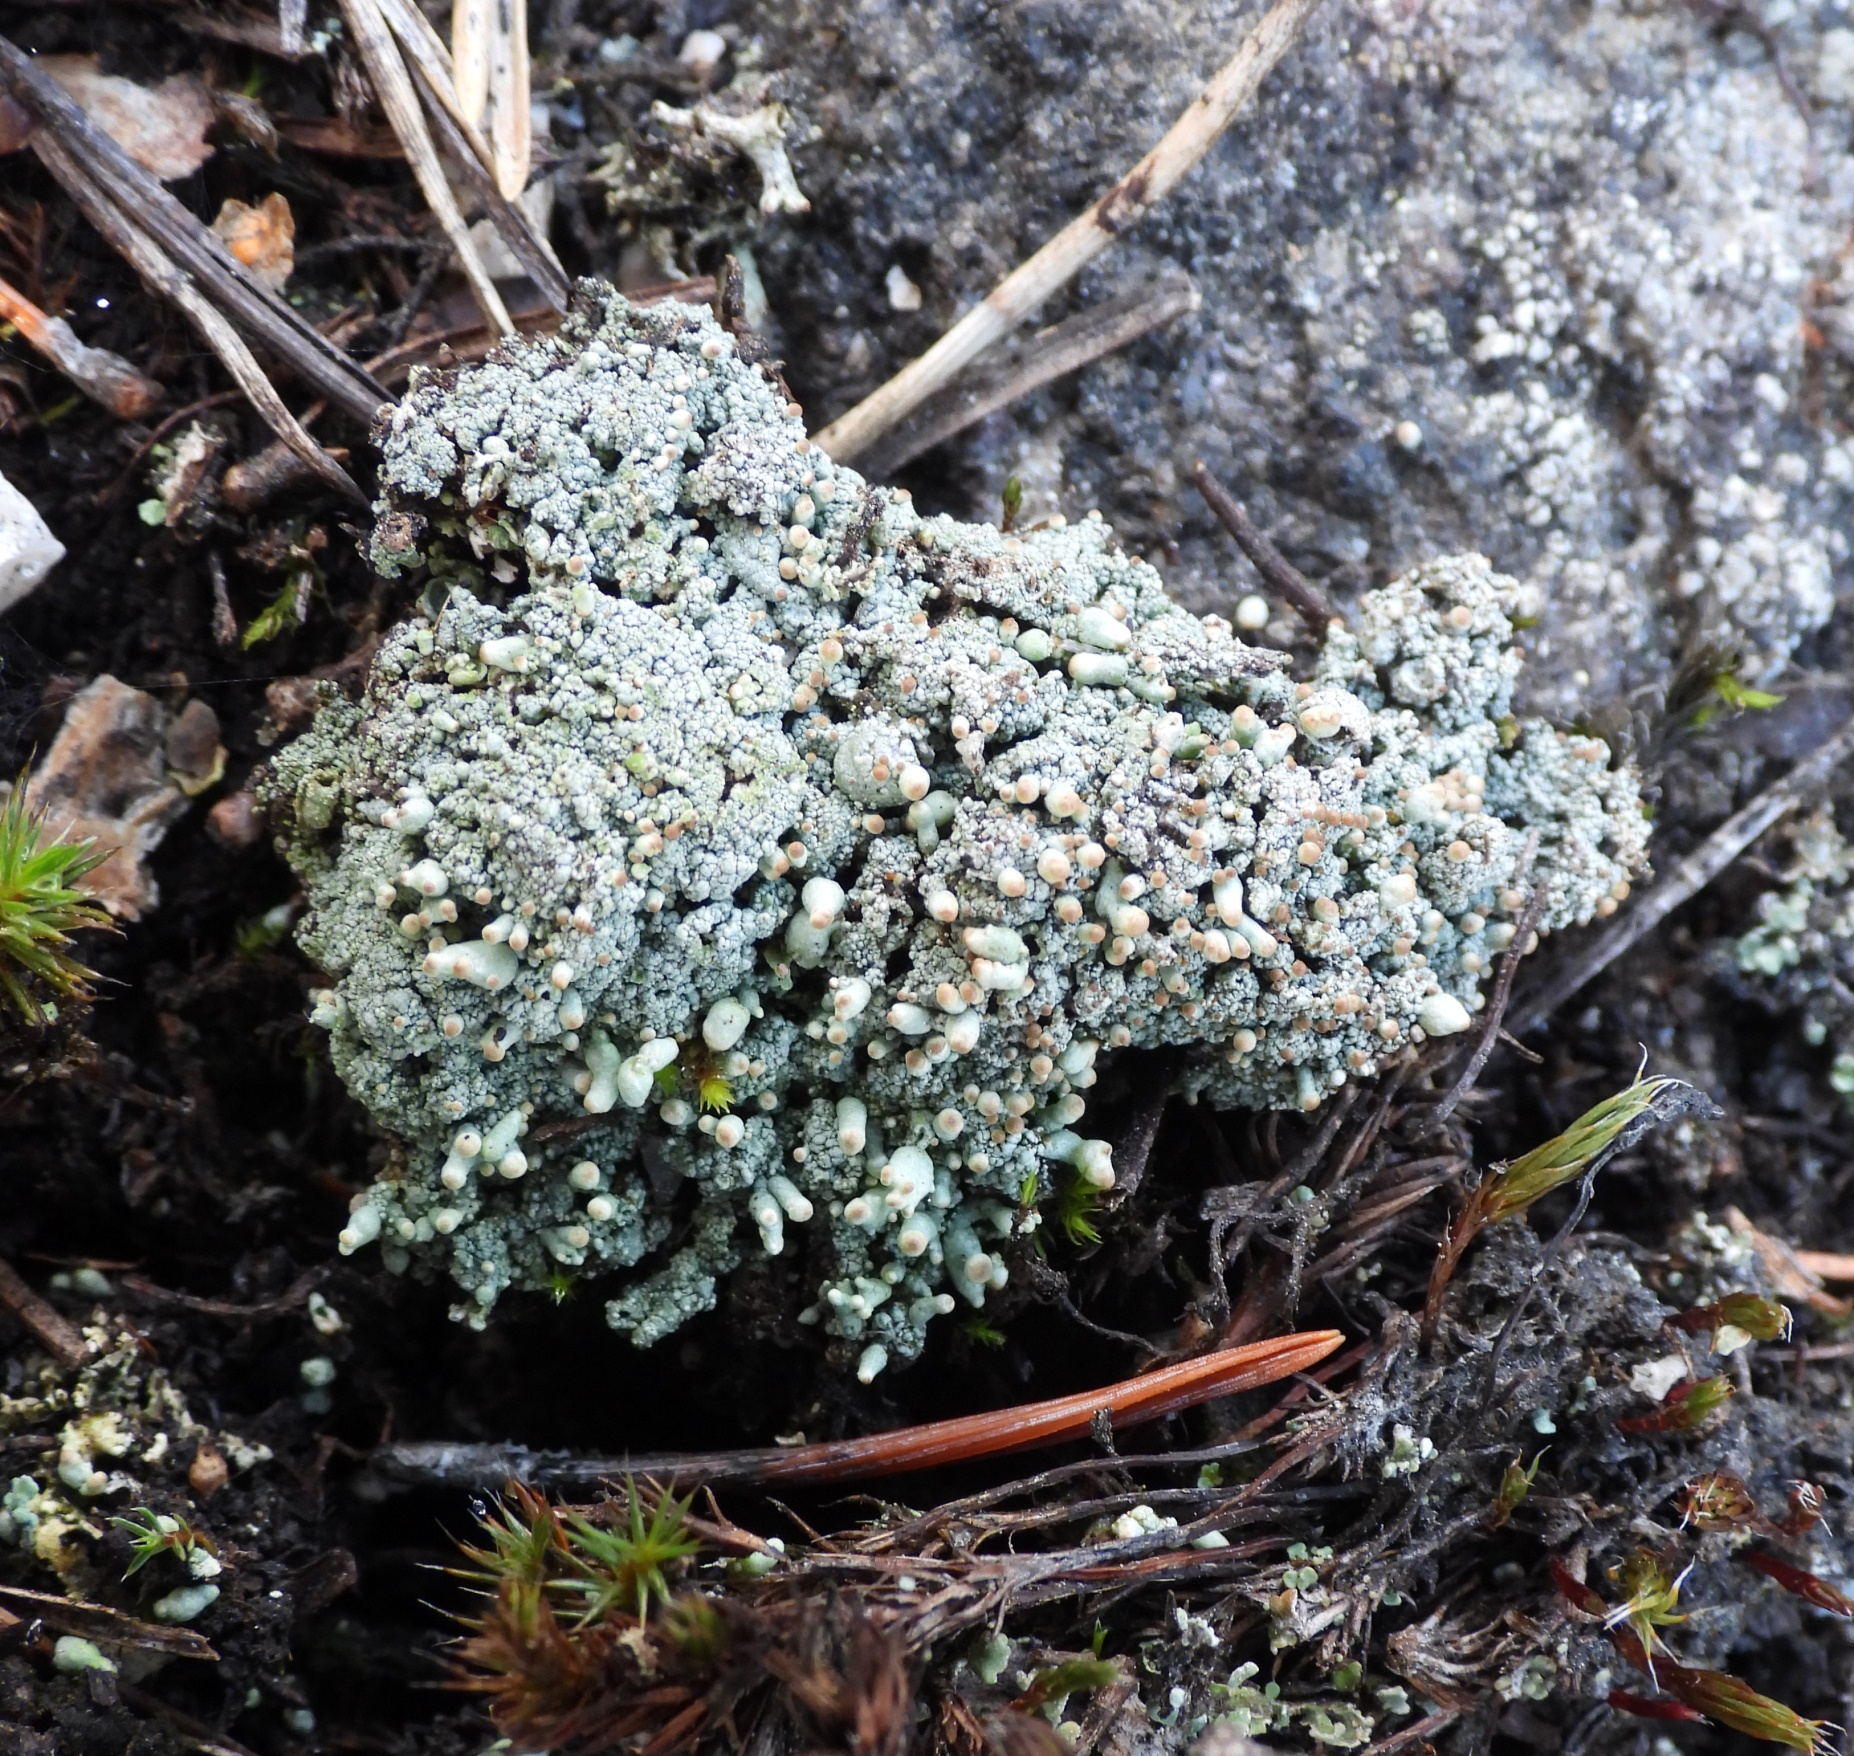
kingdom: Fungi
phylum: Ascomycota
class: Lecanoromycetes
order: Lecanorales
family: Cladoniaceae
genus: Pycnothelia
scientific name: Pycnothelia papillaria
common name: Nipple lichen
